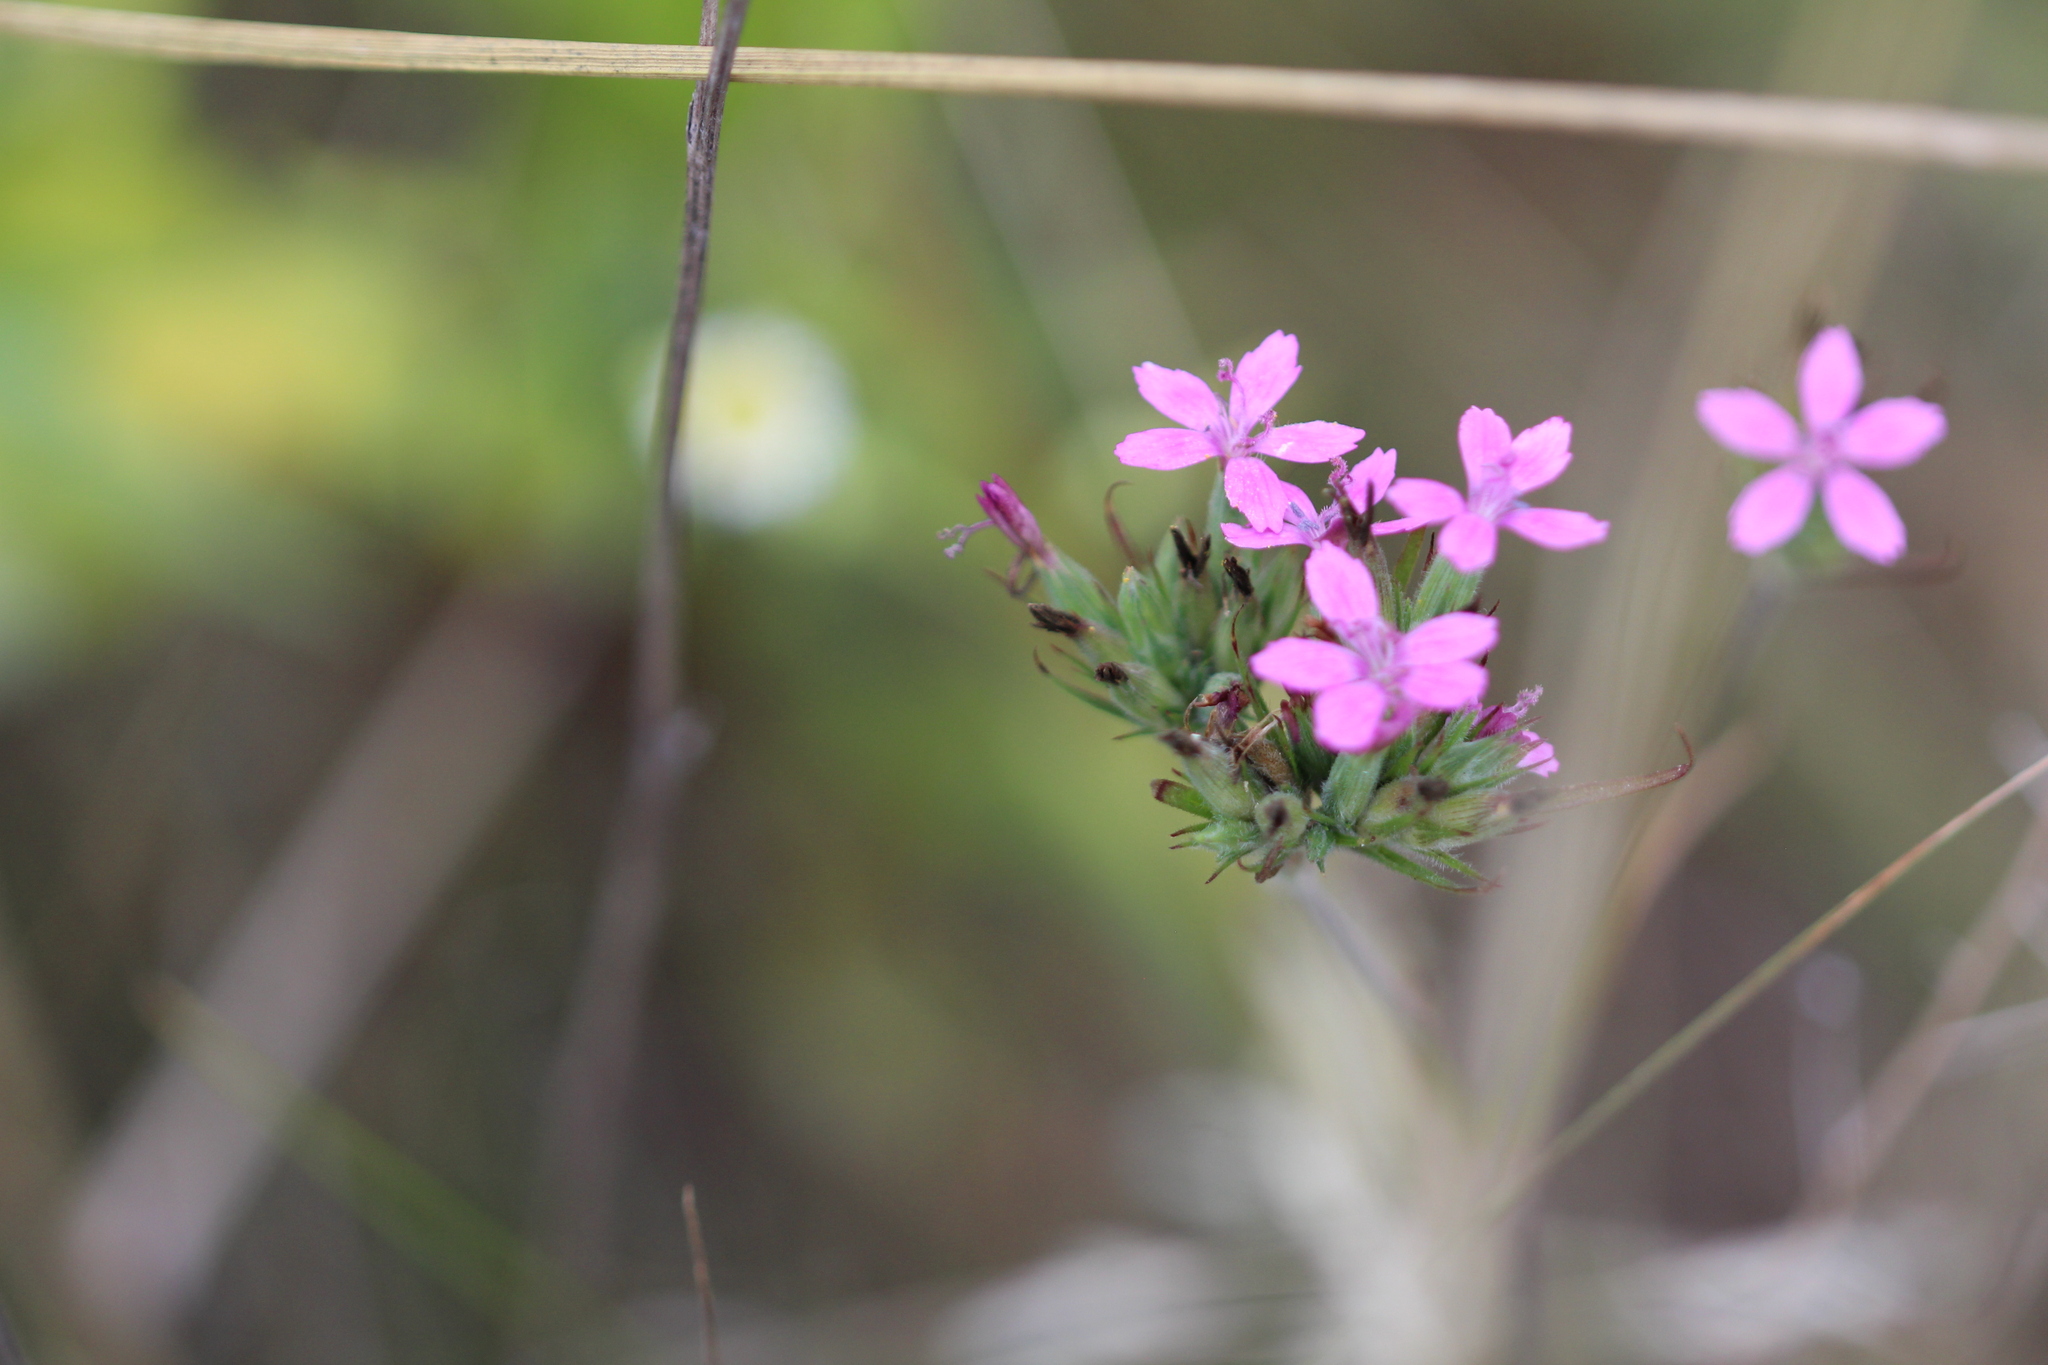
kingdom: Plantae
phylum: Tracheophyta
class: Magnoliopsida
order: Caryophyllales
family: Caryophyllaceae
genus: Dianthus
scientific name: Dianthus armeria
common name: Deptford pink
